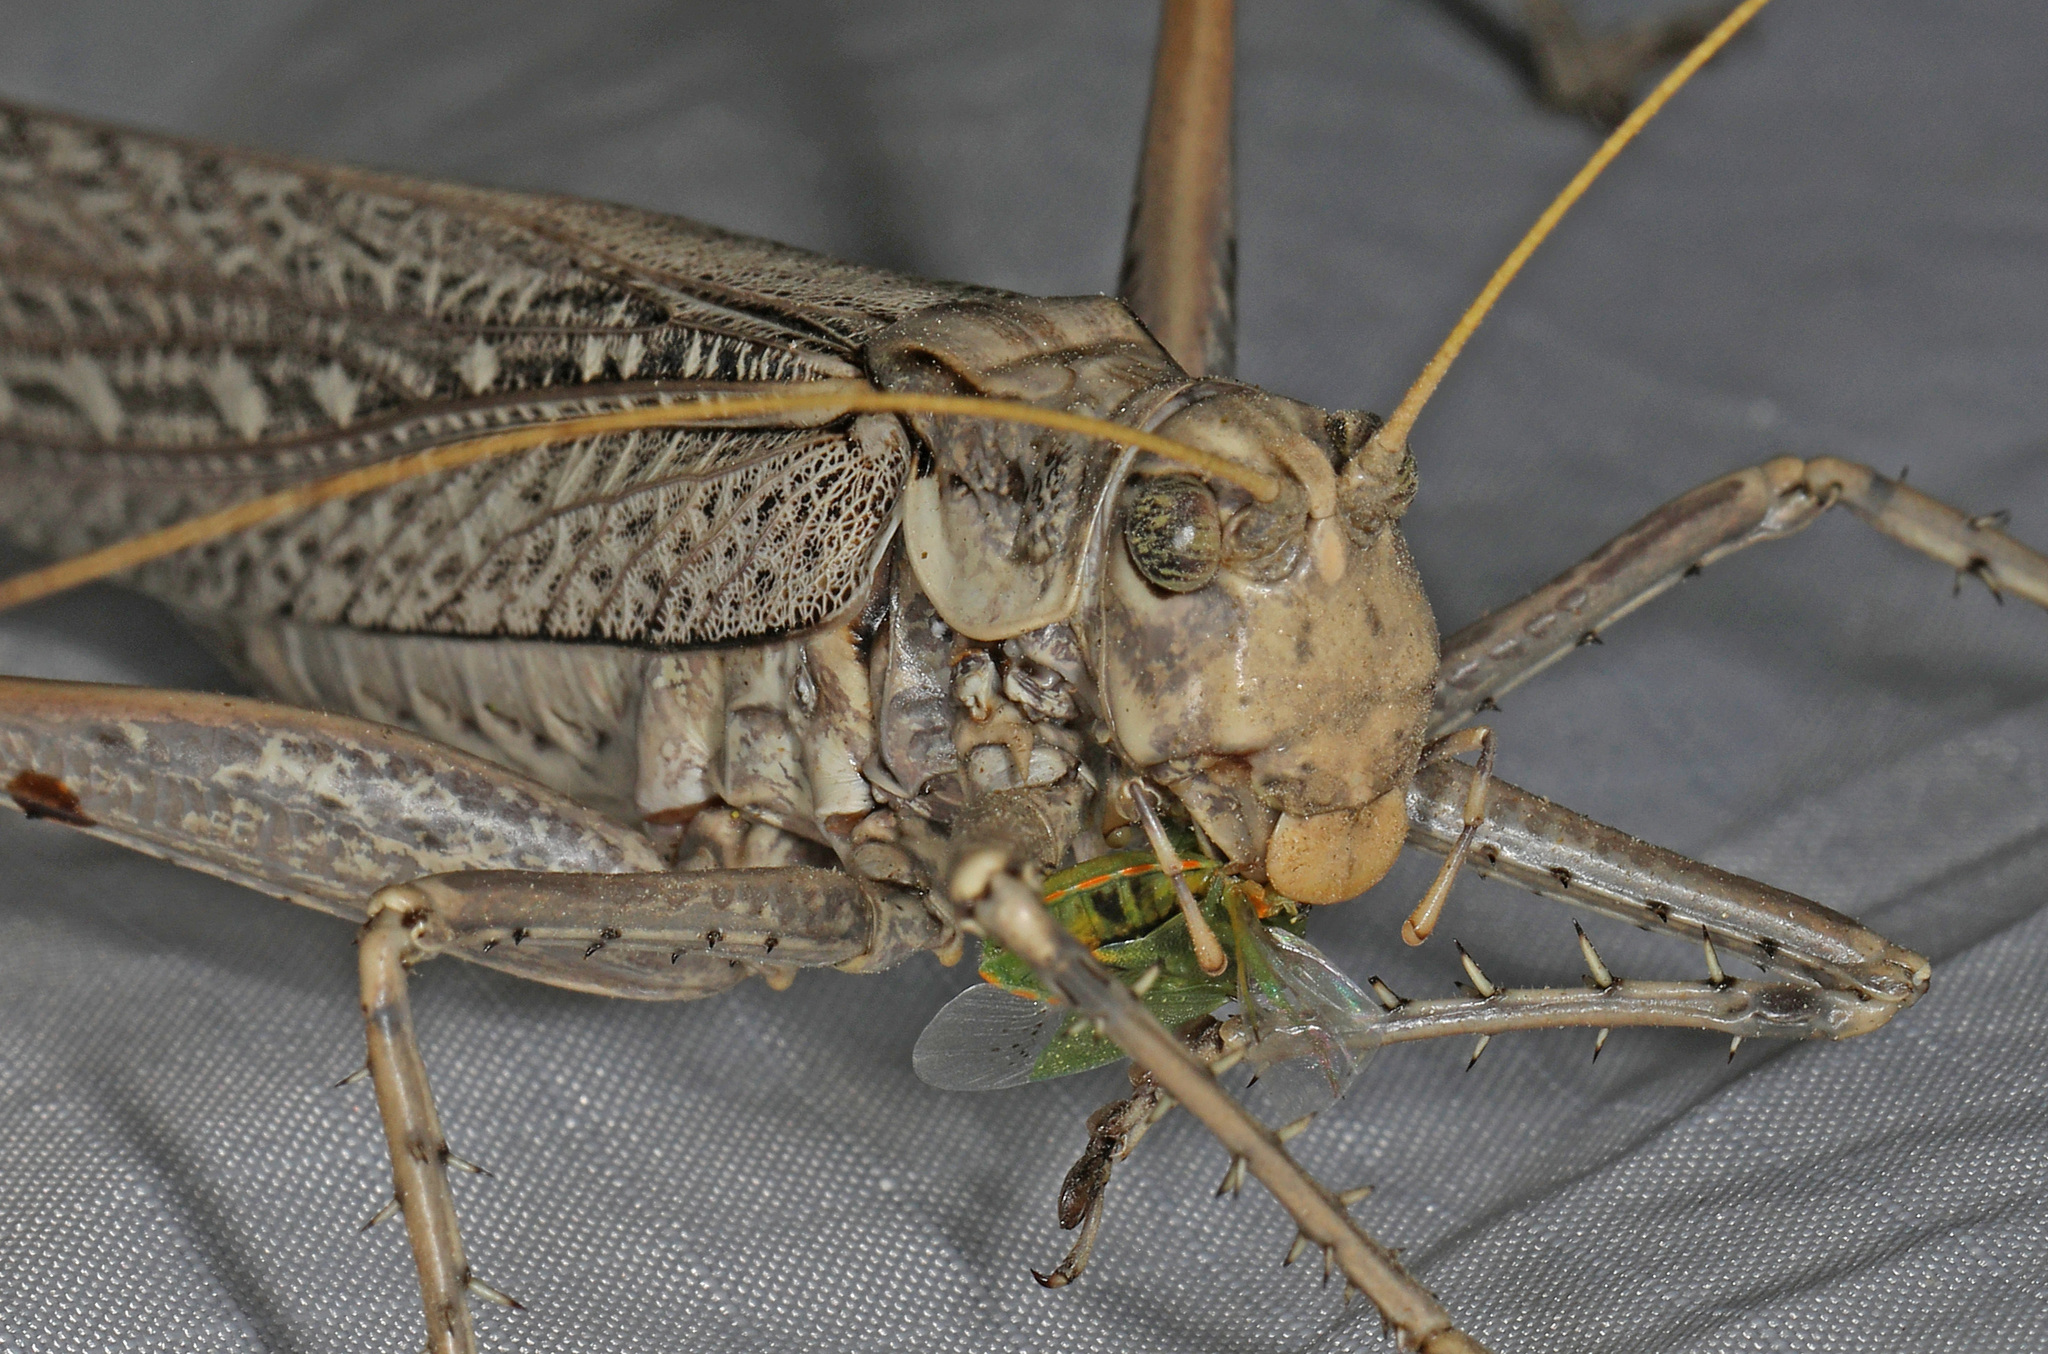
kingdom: Animalia
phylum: Arthropoda
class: Insecta
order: Orthoptera
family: Tettigoniidae
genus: Capnobotes
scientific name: Capnobotes fuliginosus
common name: Sooty longwing
